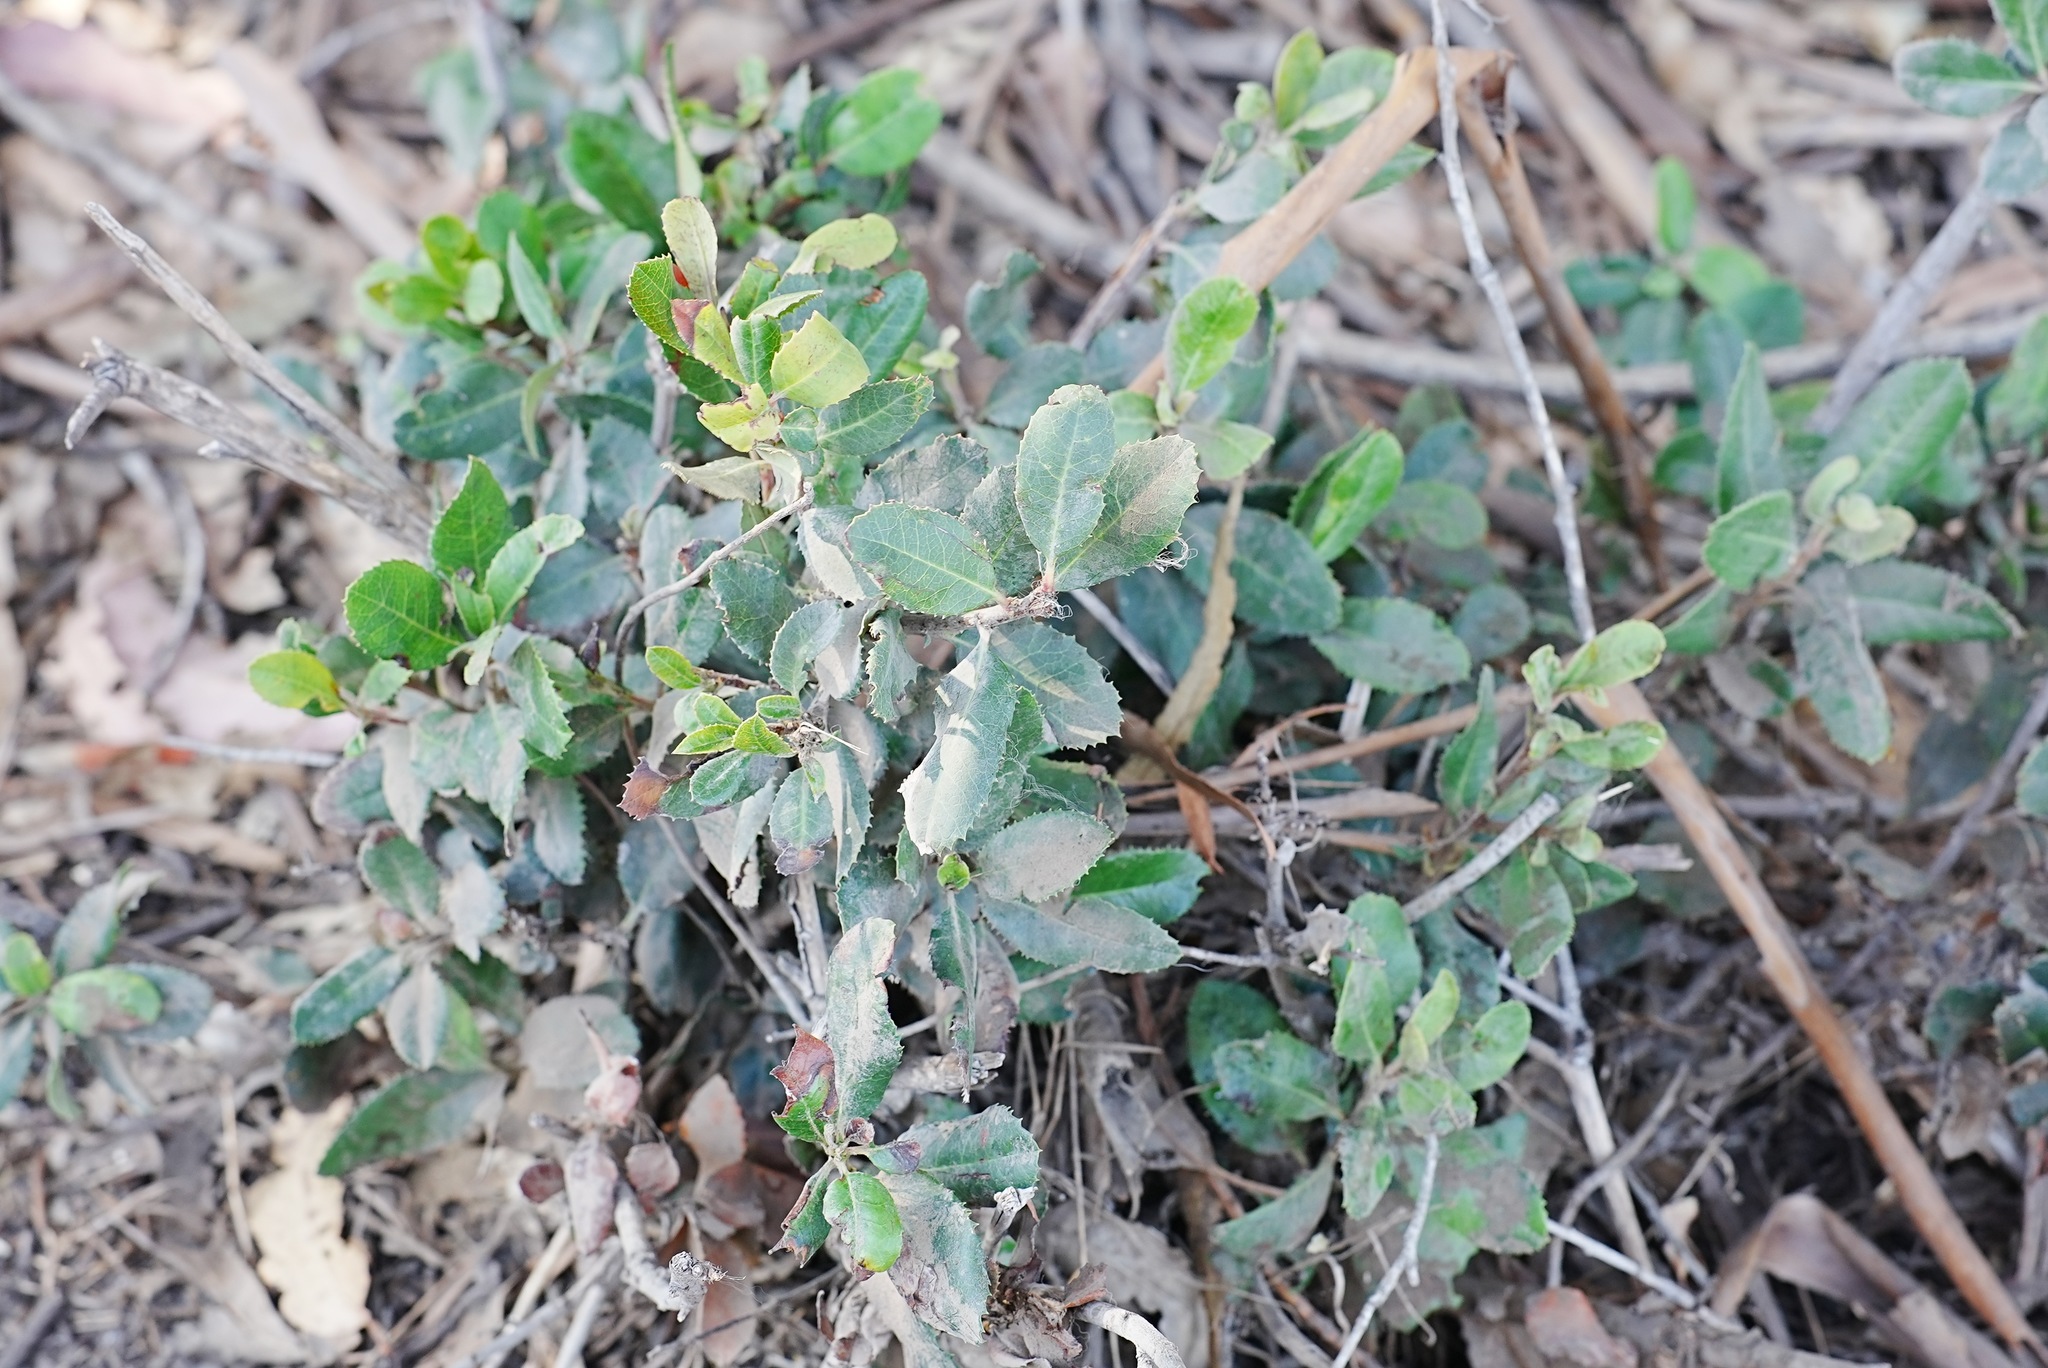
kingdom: Plantae
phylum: Tracheophyta
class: Magnoliopsida
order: Rosales
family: Rosaceae
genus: Heteromeles
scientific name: Heteromeles arbutifolia
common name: California-holly
